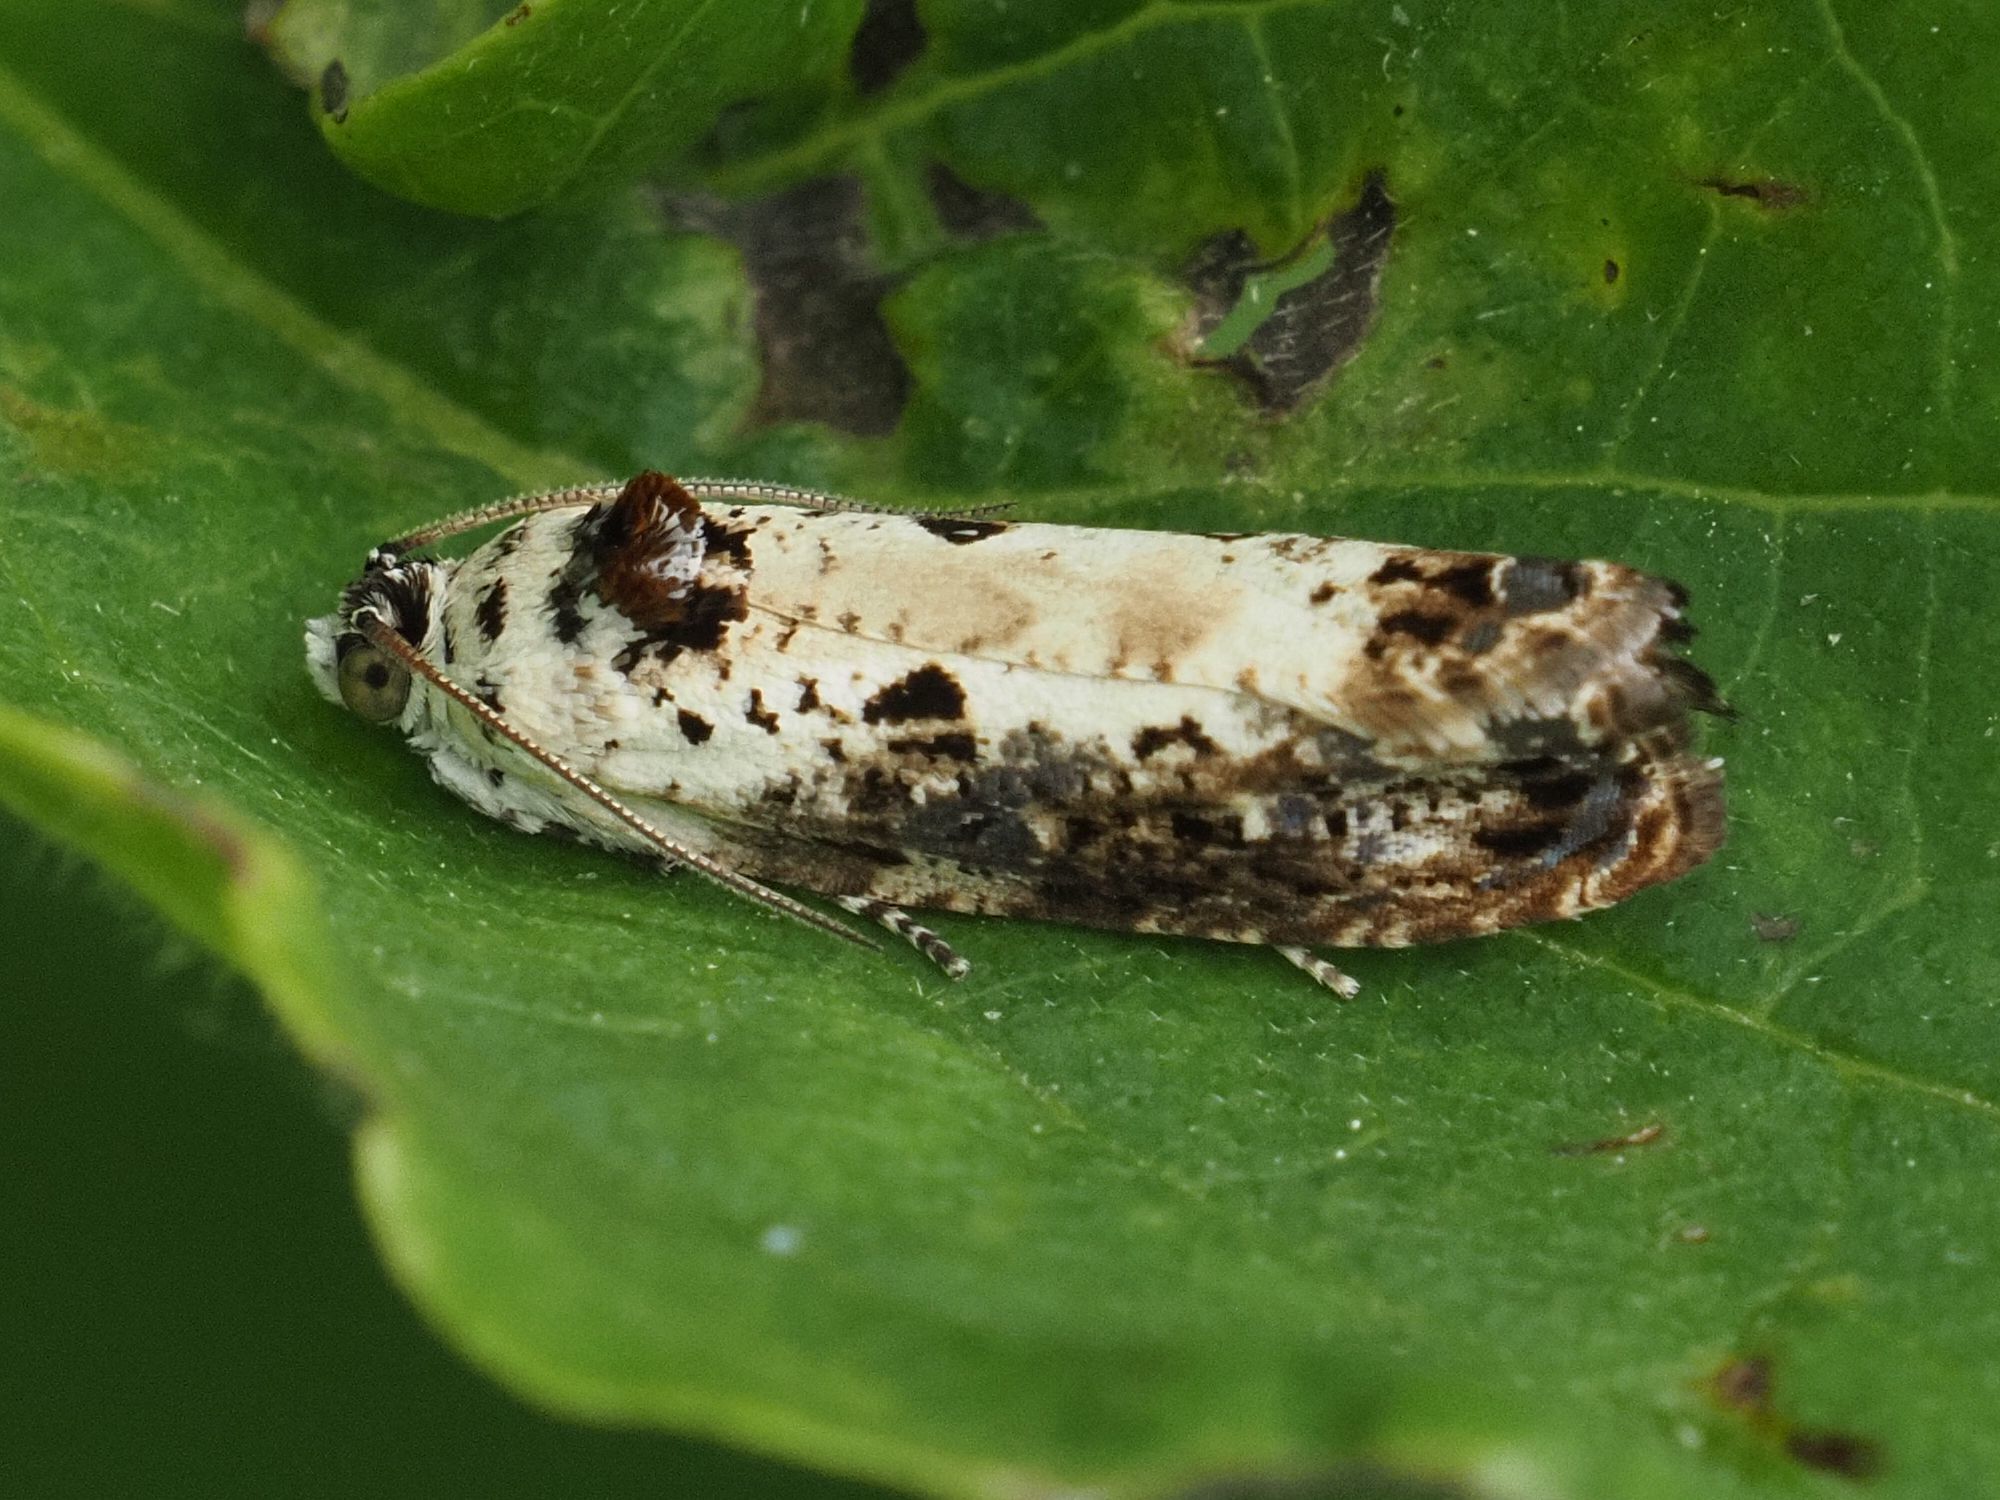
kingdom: Animalia
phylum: Arthropoda
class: Insecta
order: Lepidoptera
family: Tortricidae
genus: Hedya
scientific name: Hedya salicella
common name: Large tortricid moth
